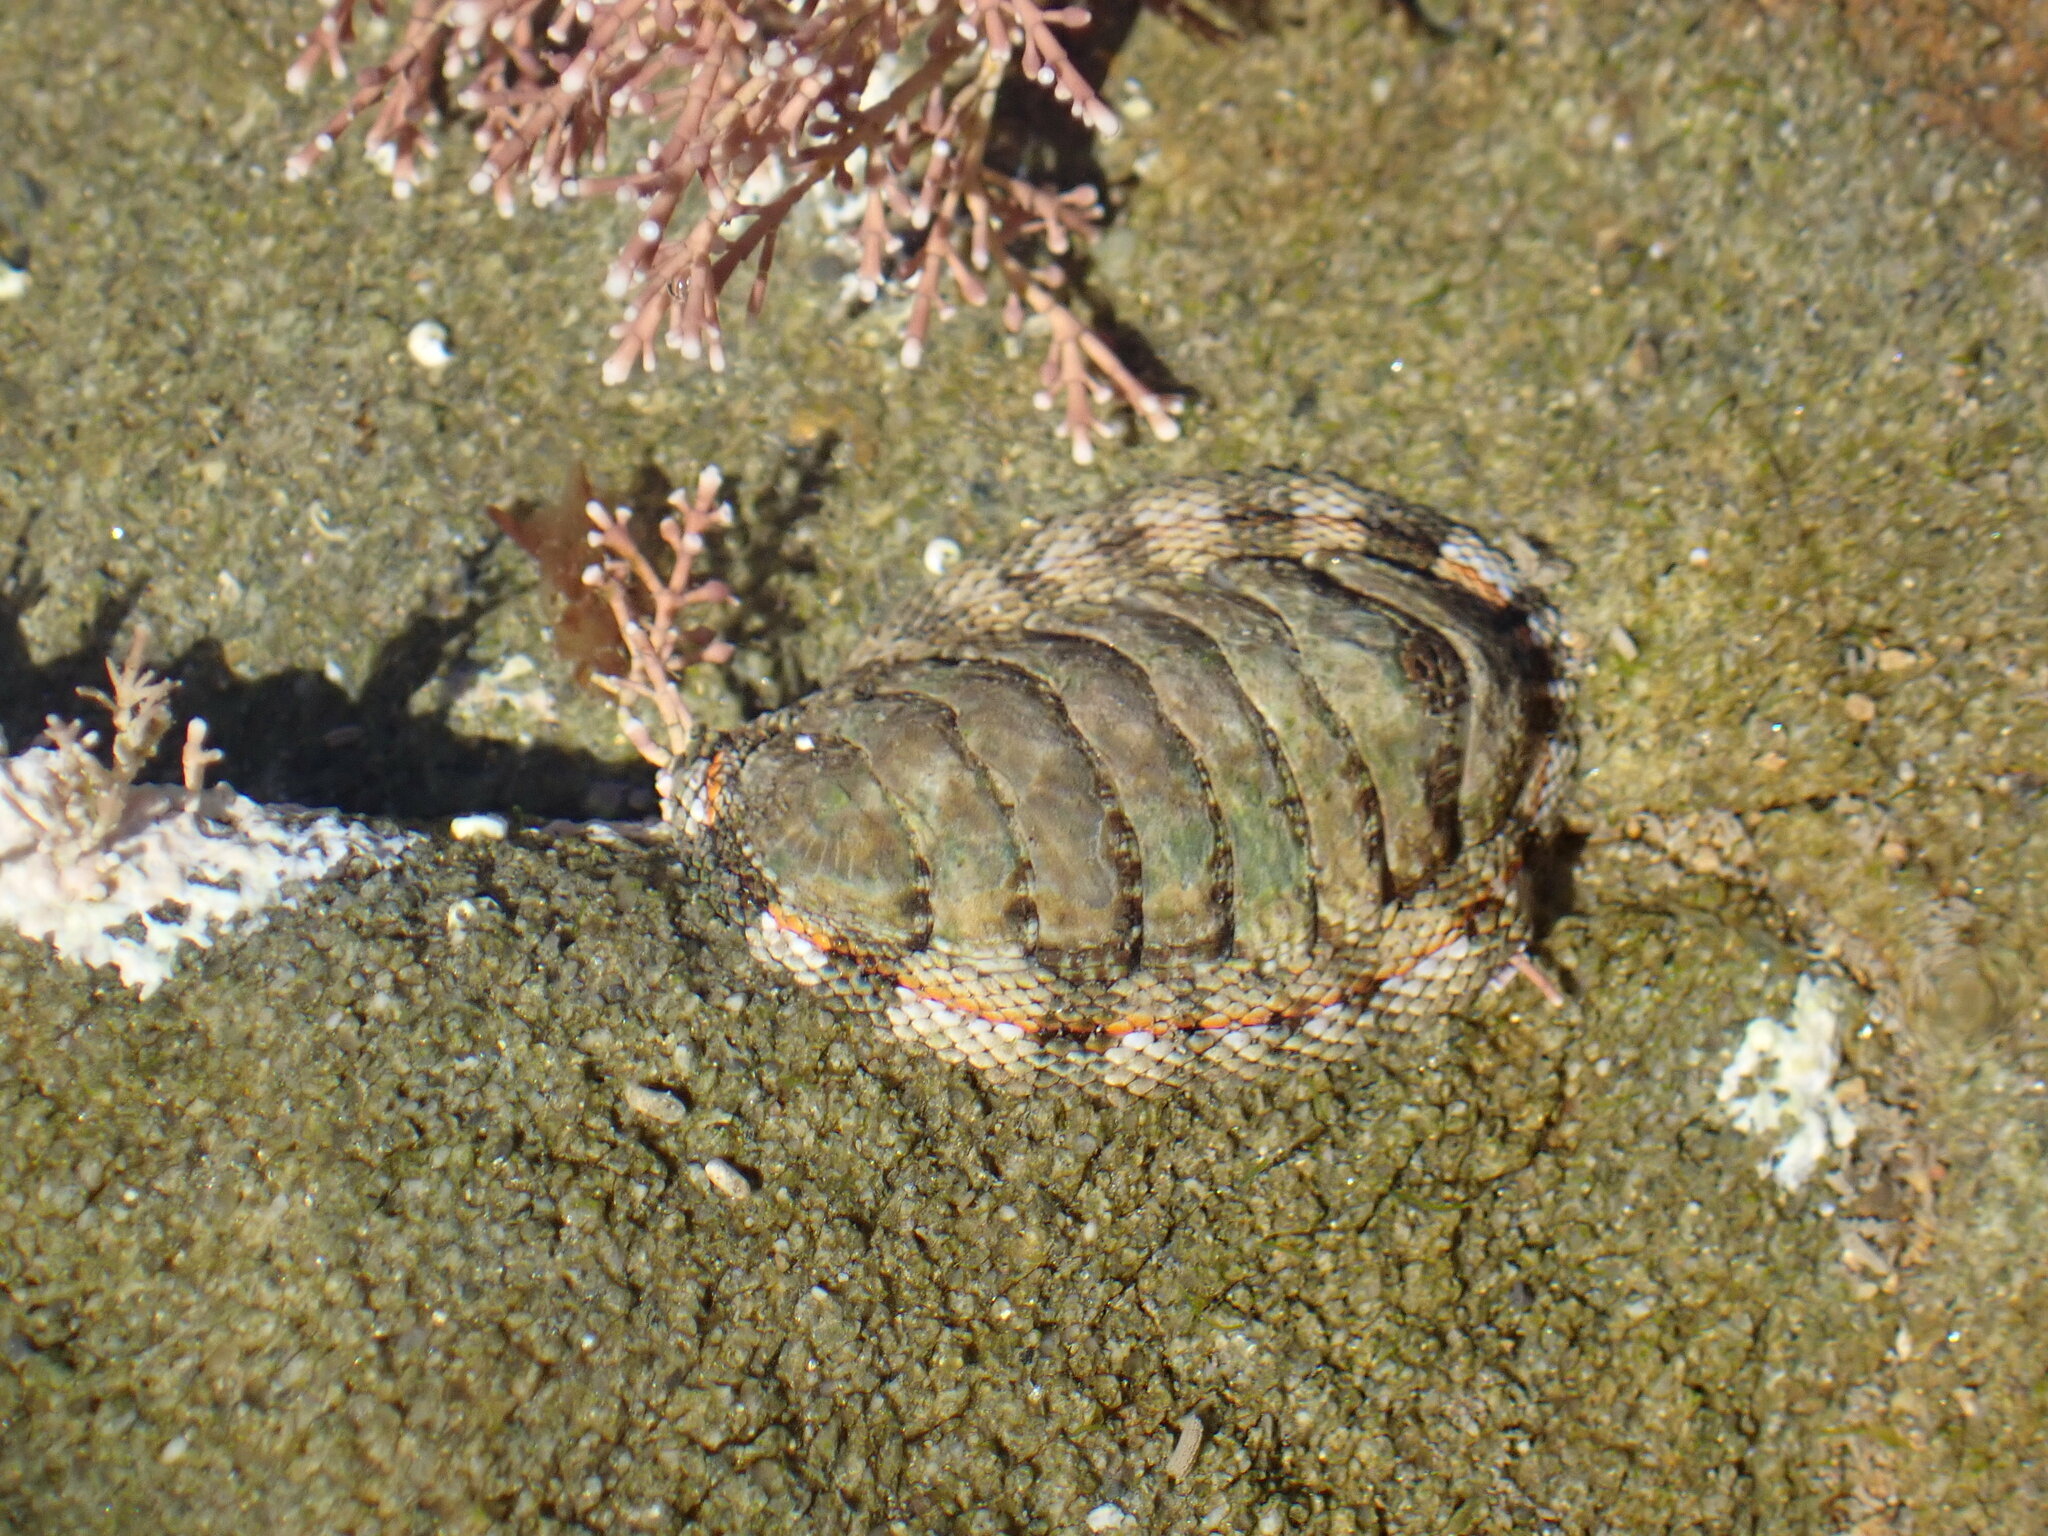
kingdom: Animalia
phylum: Mollusca
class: Polyplacophora
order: Chitonida
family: Chitonidae
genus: Sypharochiton
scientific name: Sypharochiton pelliserpentis
